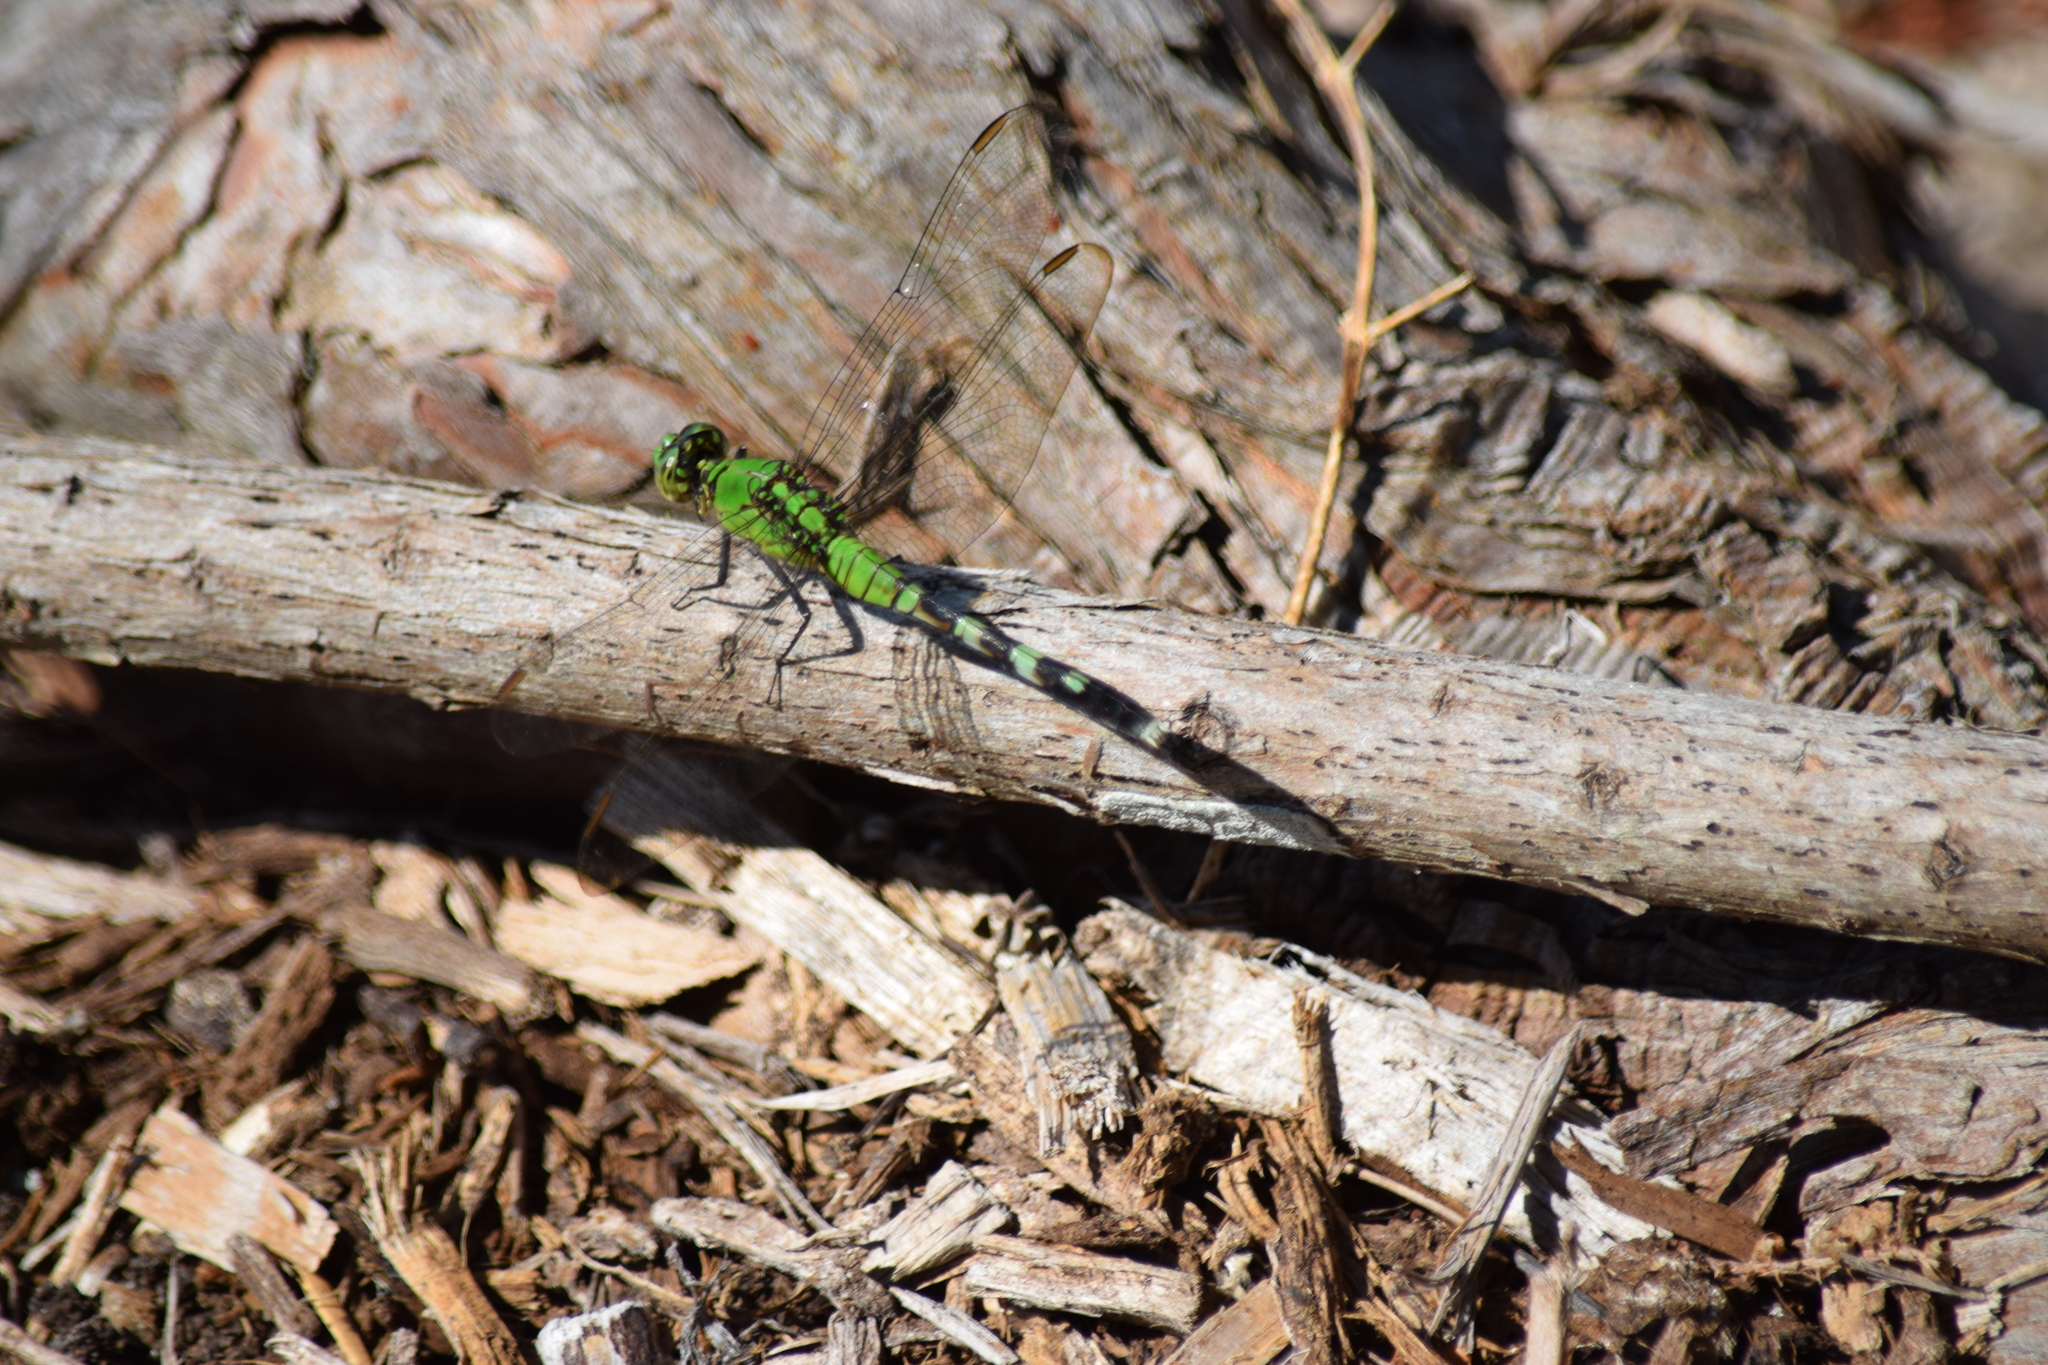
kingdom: Animalia
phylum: Arthropoda
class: Insecta
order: Odonata
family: Libellulidae
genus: Erythemis
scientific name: Erythemis simplicicollis
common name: Eastern pondhawk
